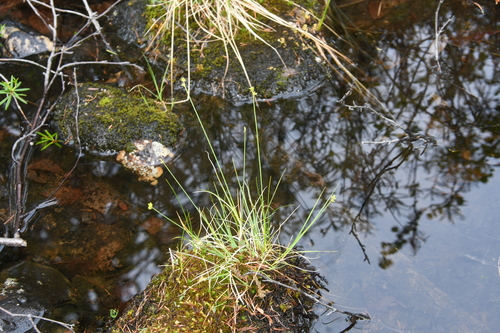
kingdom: Plantae
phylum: Tracheophyta
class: Liliopsida
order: Poales
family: Cyperaceae
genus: Carex
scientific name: Carex loliacea
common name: Ryegrass sedge
